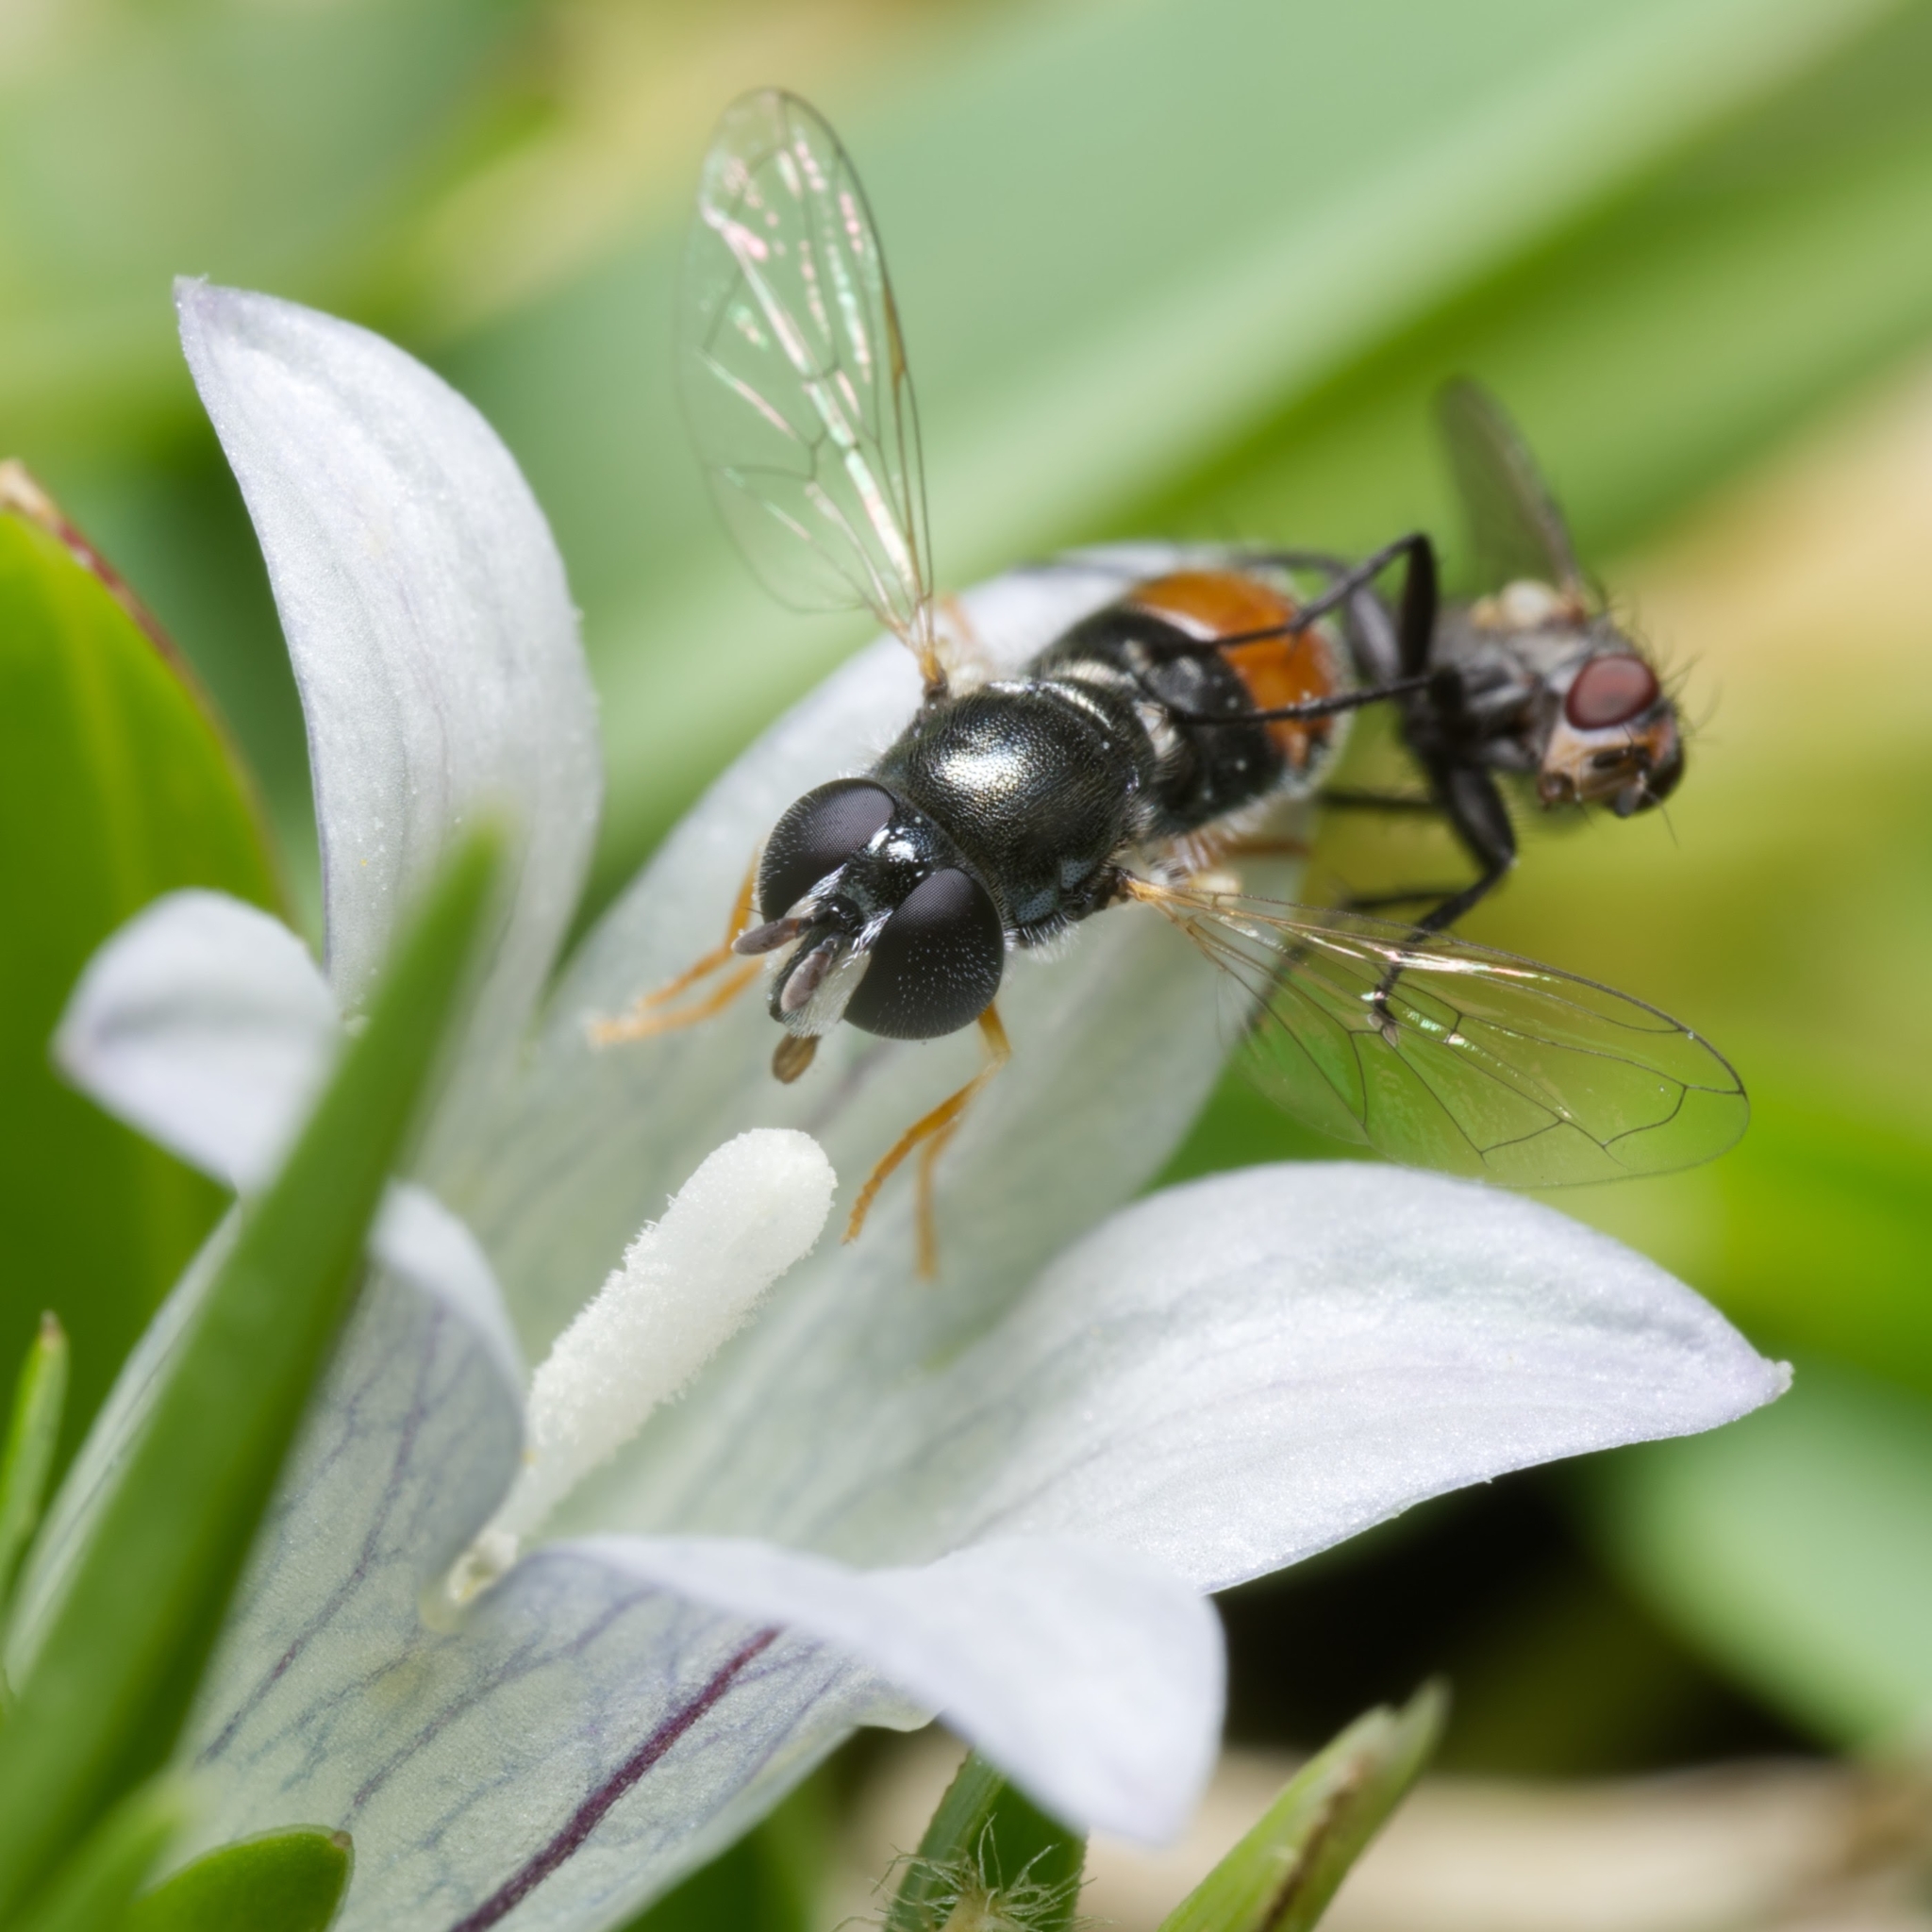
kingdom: Animalia
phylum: Arthropoda
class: Insecta
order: Diptera
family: Syrphidae
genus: Paragus
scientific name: Paragus haemorrhous
